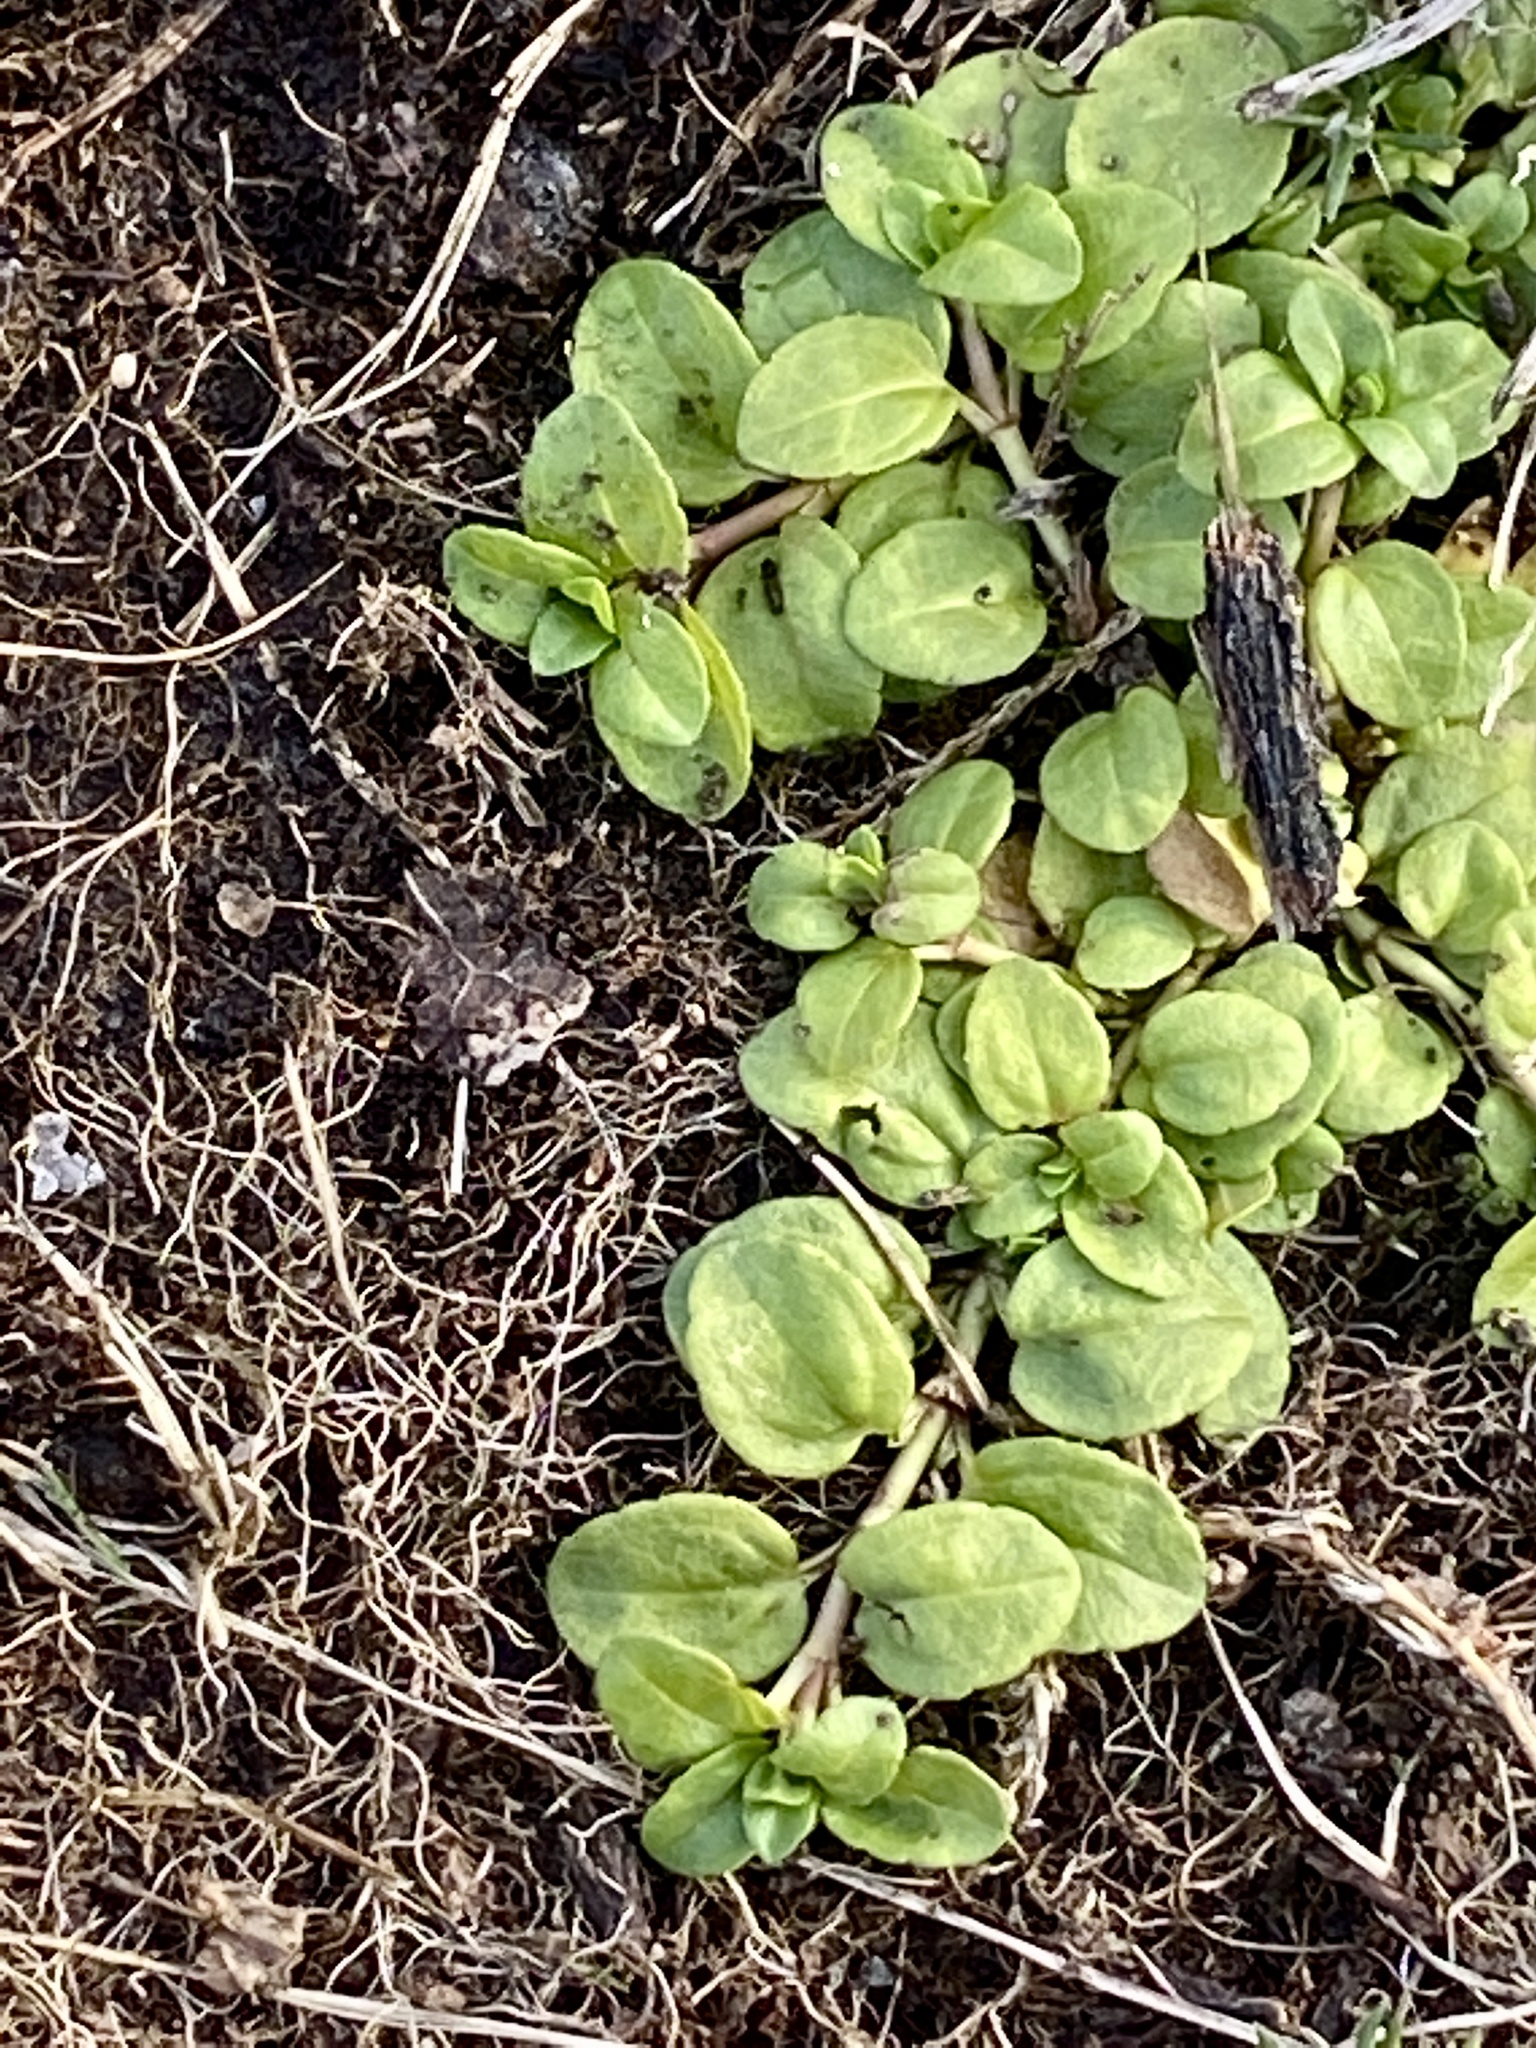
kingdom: Plantae
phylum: Tracheophyta
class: Magnoliopsida
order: Lamiales
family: Plantaginaceae
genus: Veronica
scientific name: Veronica serpyllifolia
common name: Thyme-leaved speedwell
